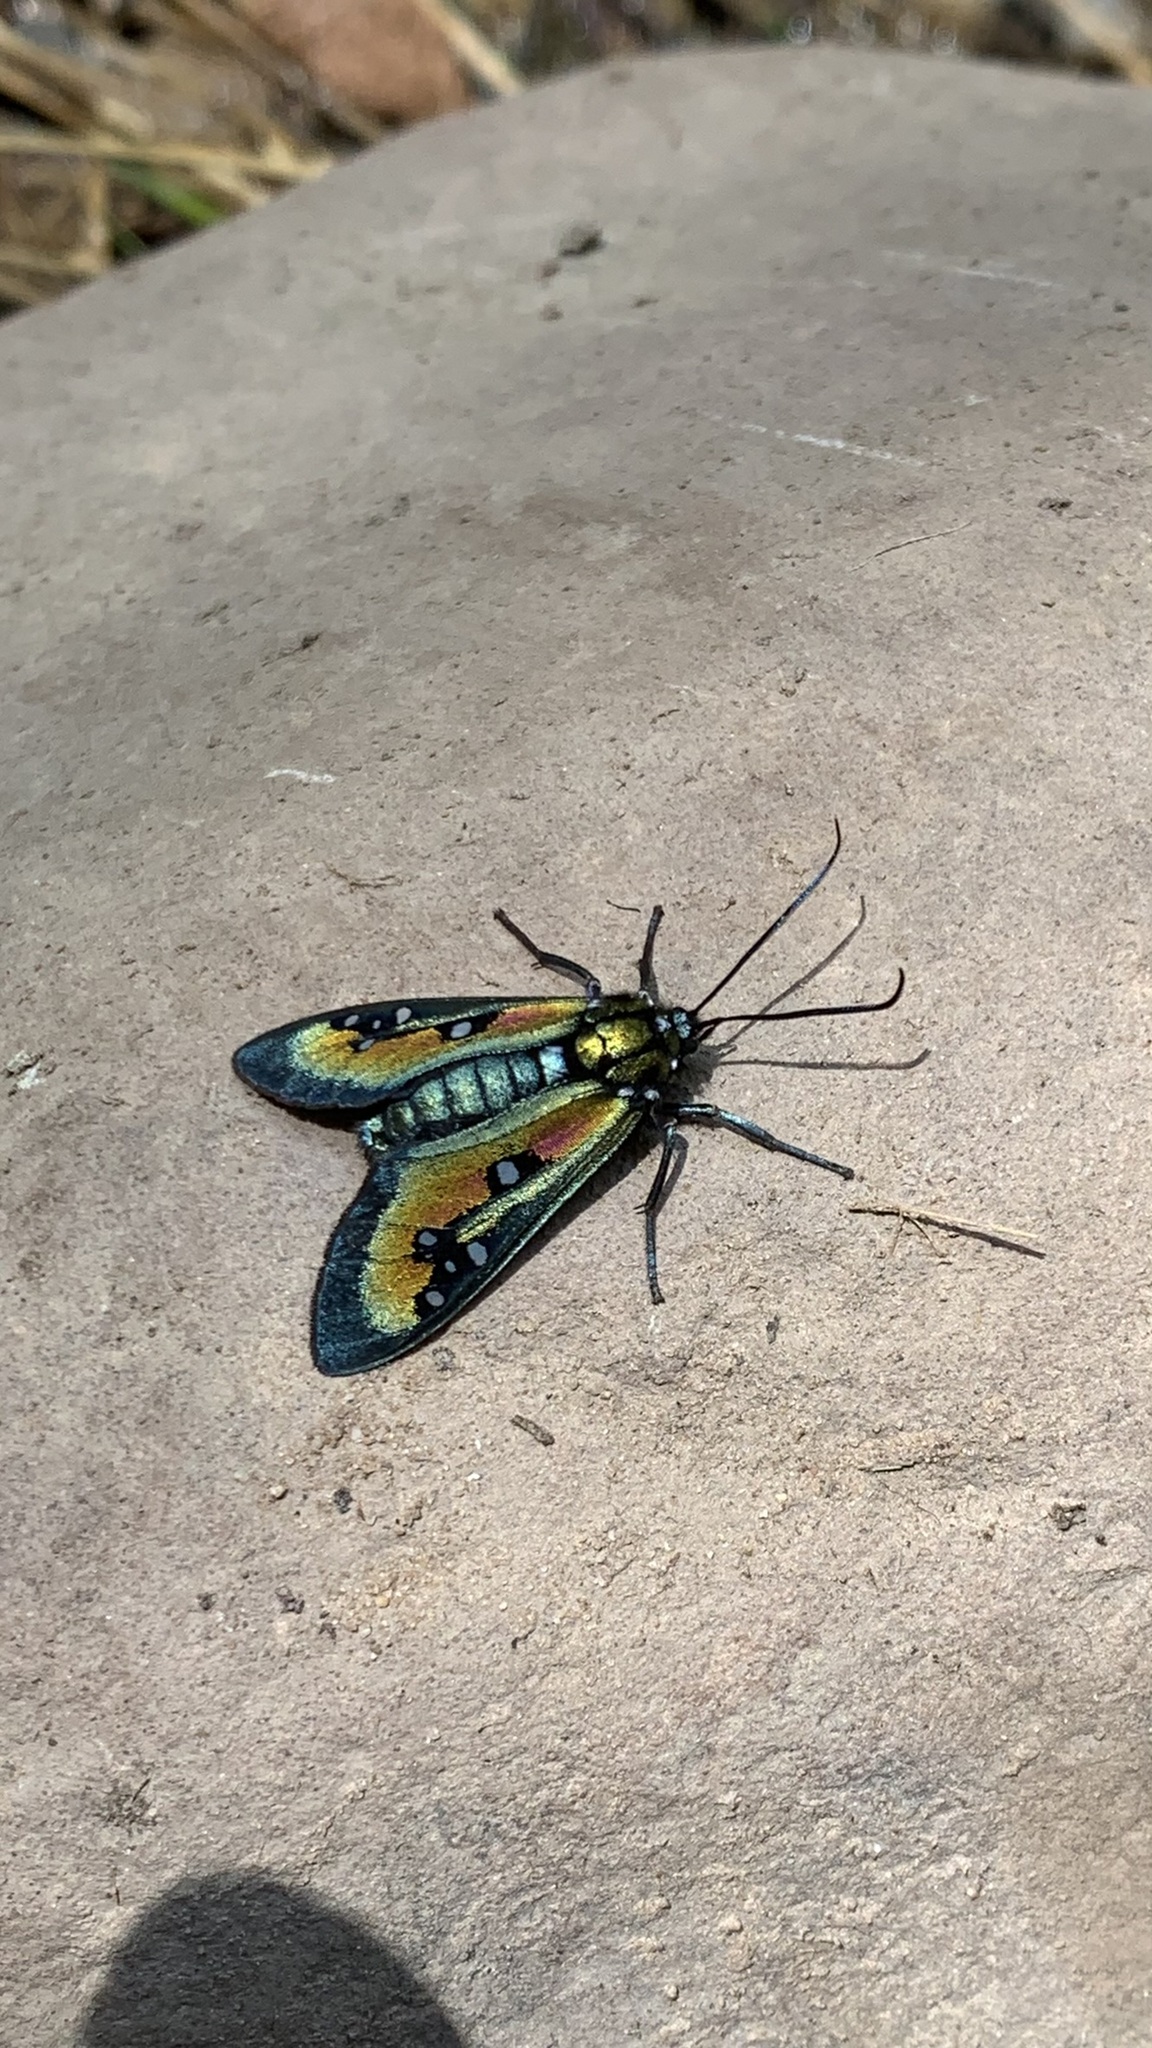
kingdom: Animalia
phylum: Arthropoda
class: Insecta
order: Lepidoptera
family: Erebidae
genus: Chrysocale
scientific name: Chrysocale regalis
